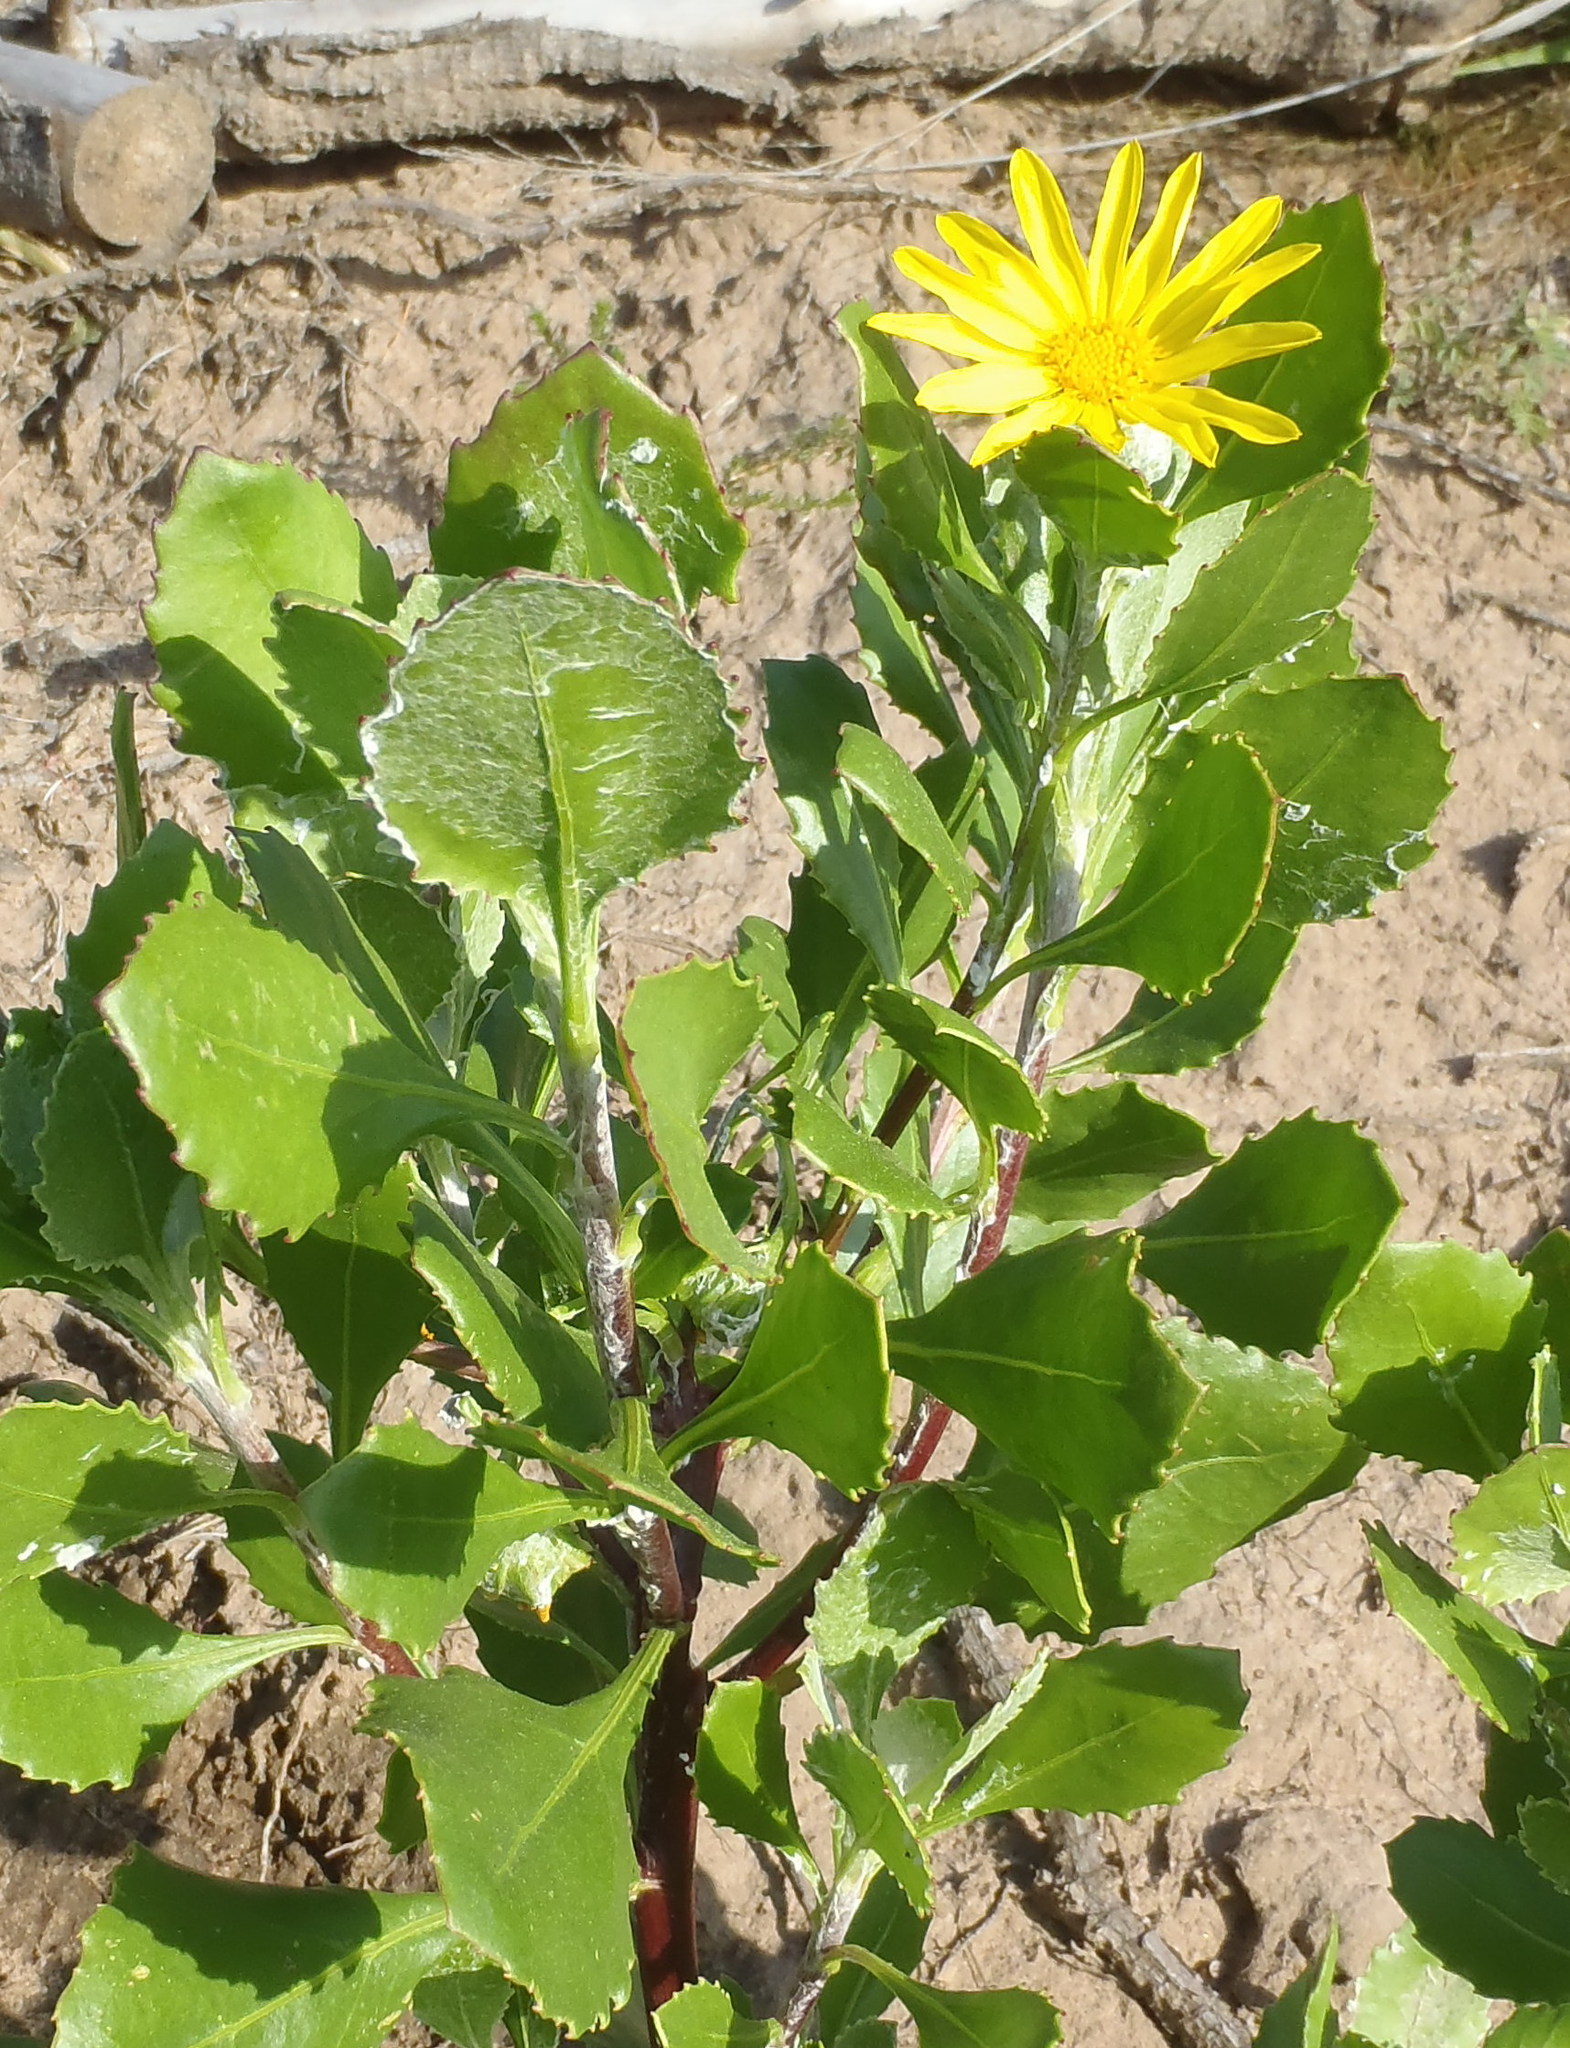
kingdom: Plantae
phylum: Tracheophyta
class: Magnoliopsida
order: Asterales
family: Asteraceae
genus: Osteospermum
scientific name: Osteospermum moniliferum
